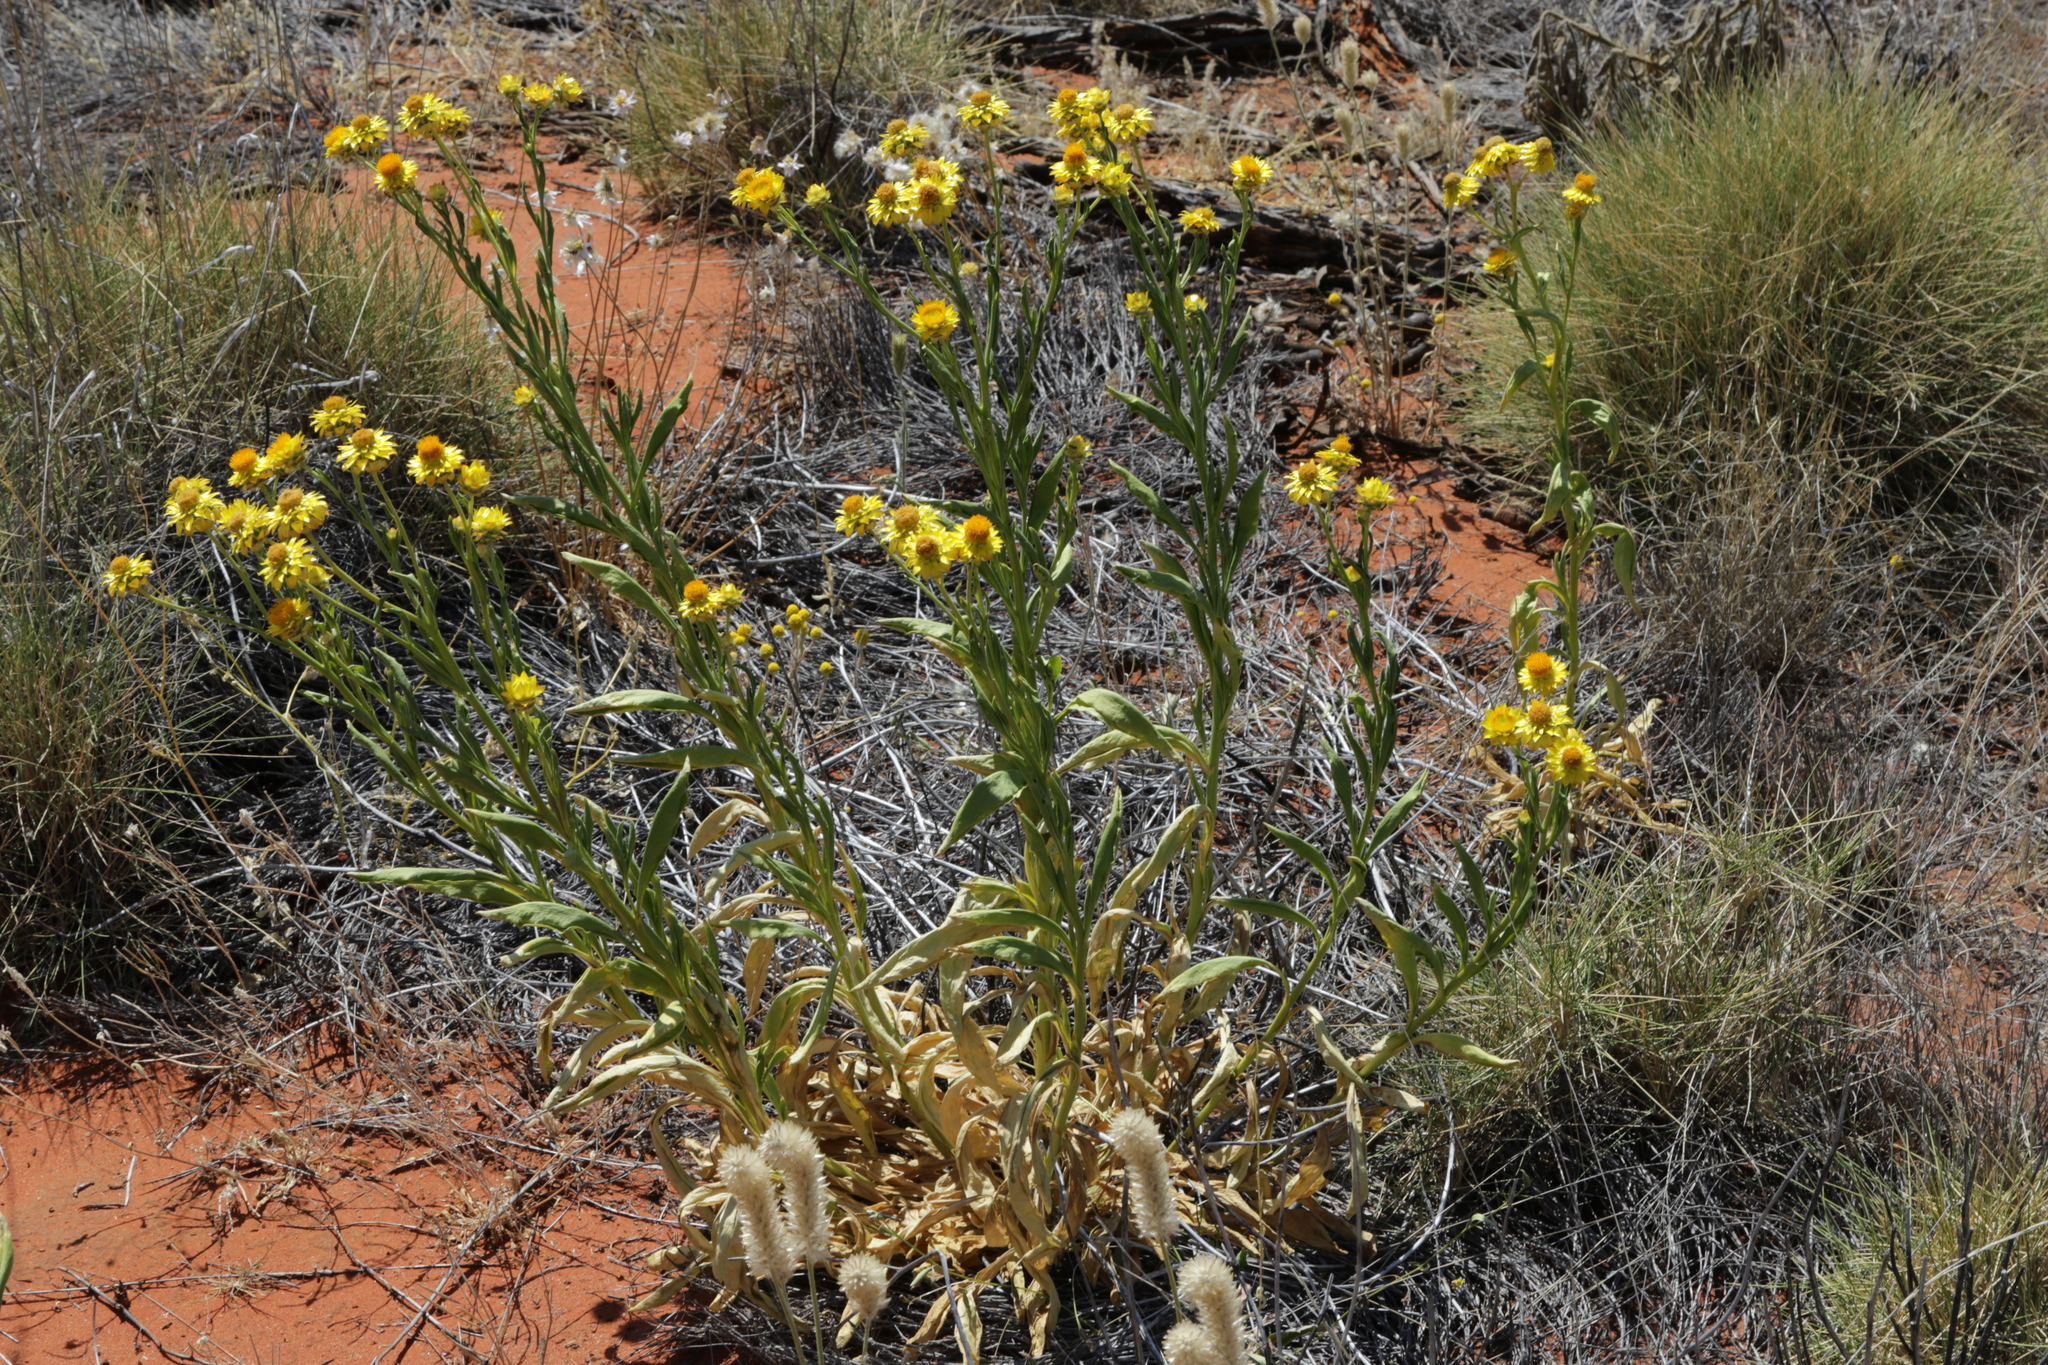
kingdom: Plantae
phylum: Tracheophyta
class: Magnoliopsida
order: Asterales
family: Asteraceae
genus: Xerochrysum
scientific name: Xerochrysum interiore
